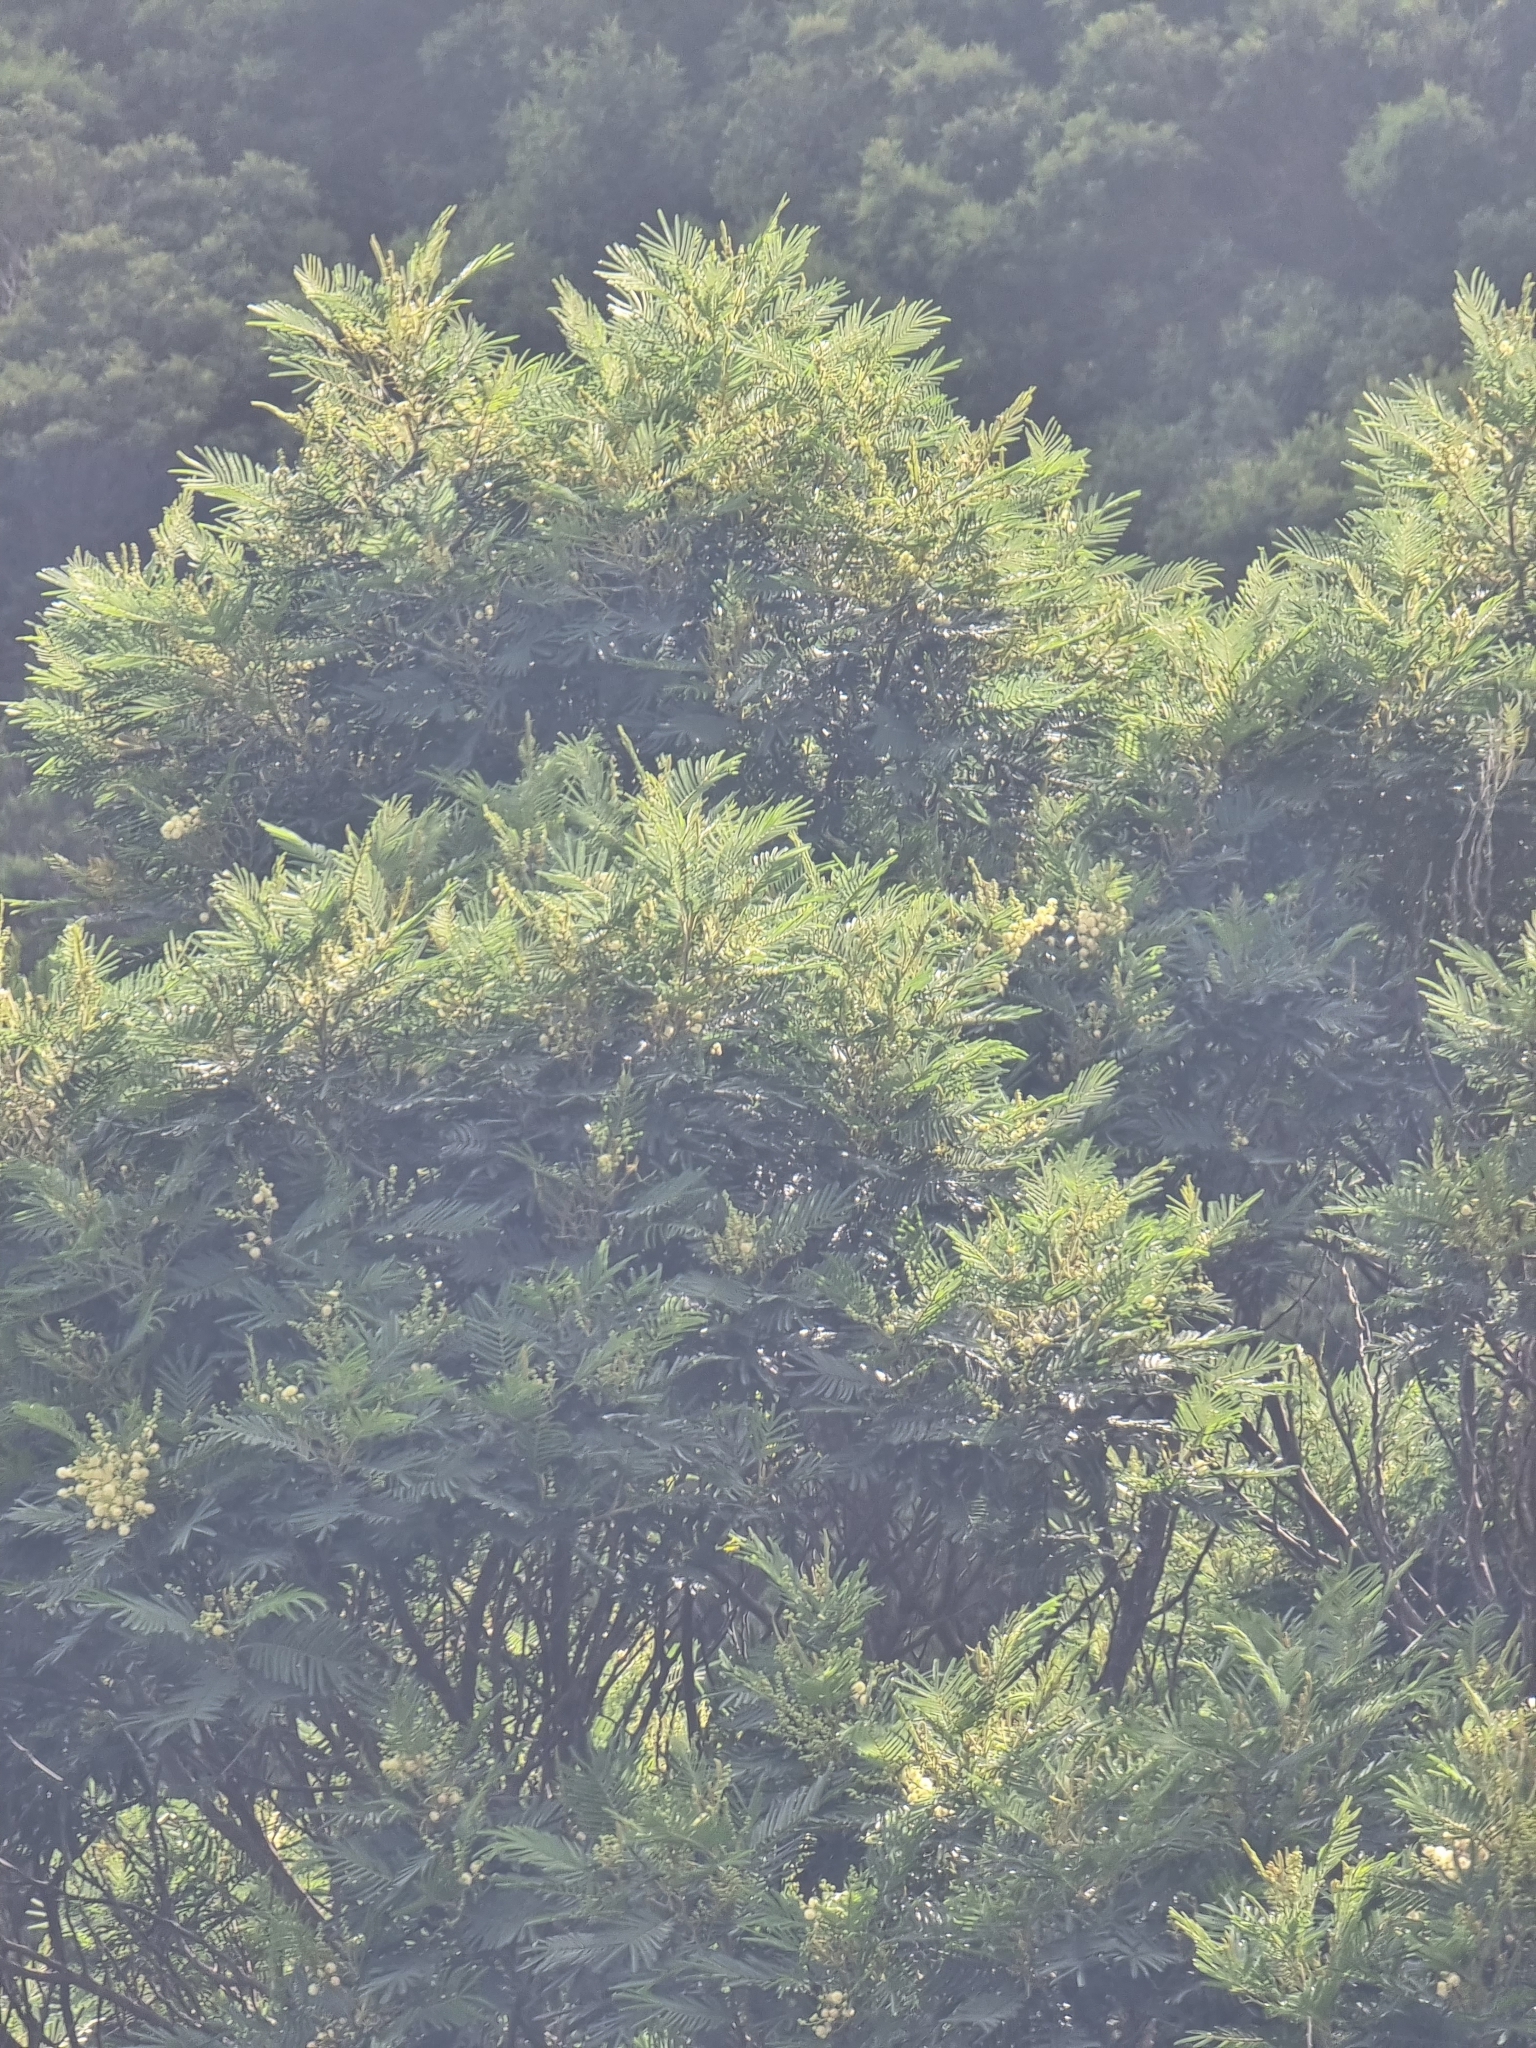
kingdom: Plantae
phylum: Tracheophyta
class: Magnoliopsida
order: Fabales
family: Fabaceae
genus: Acacia
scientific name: Acacia mearnsii
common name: Black wattle
